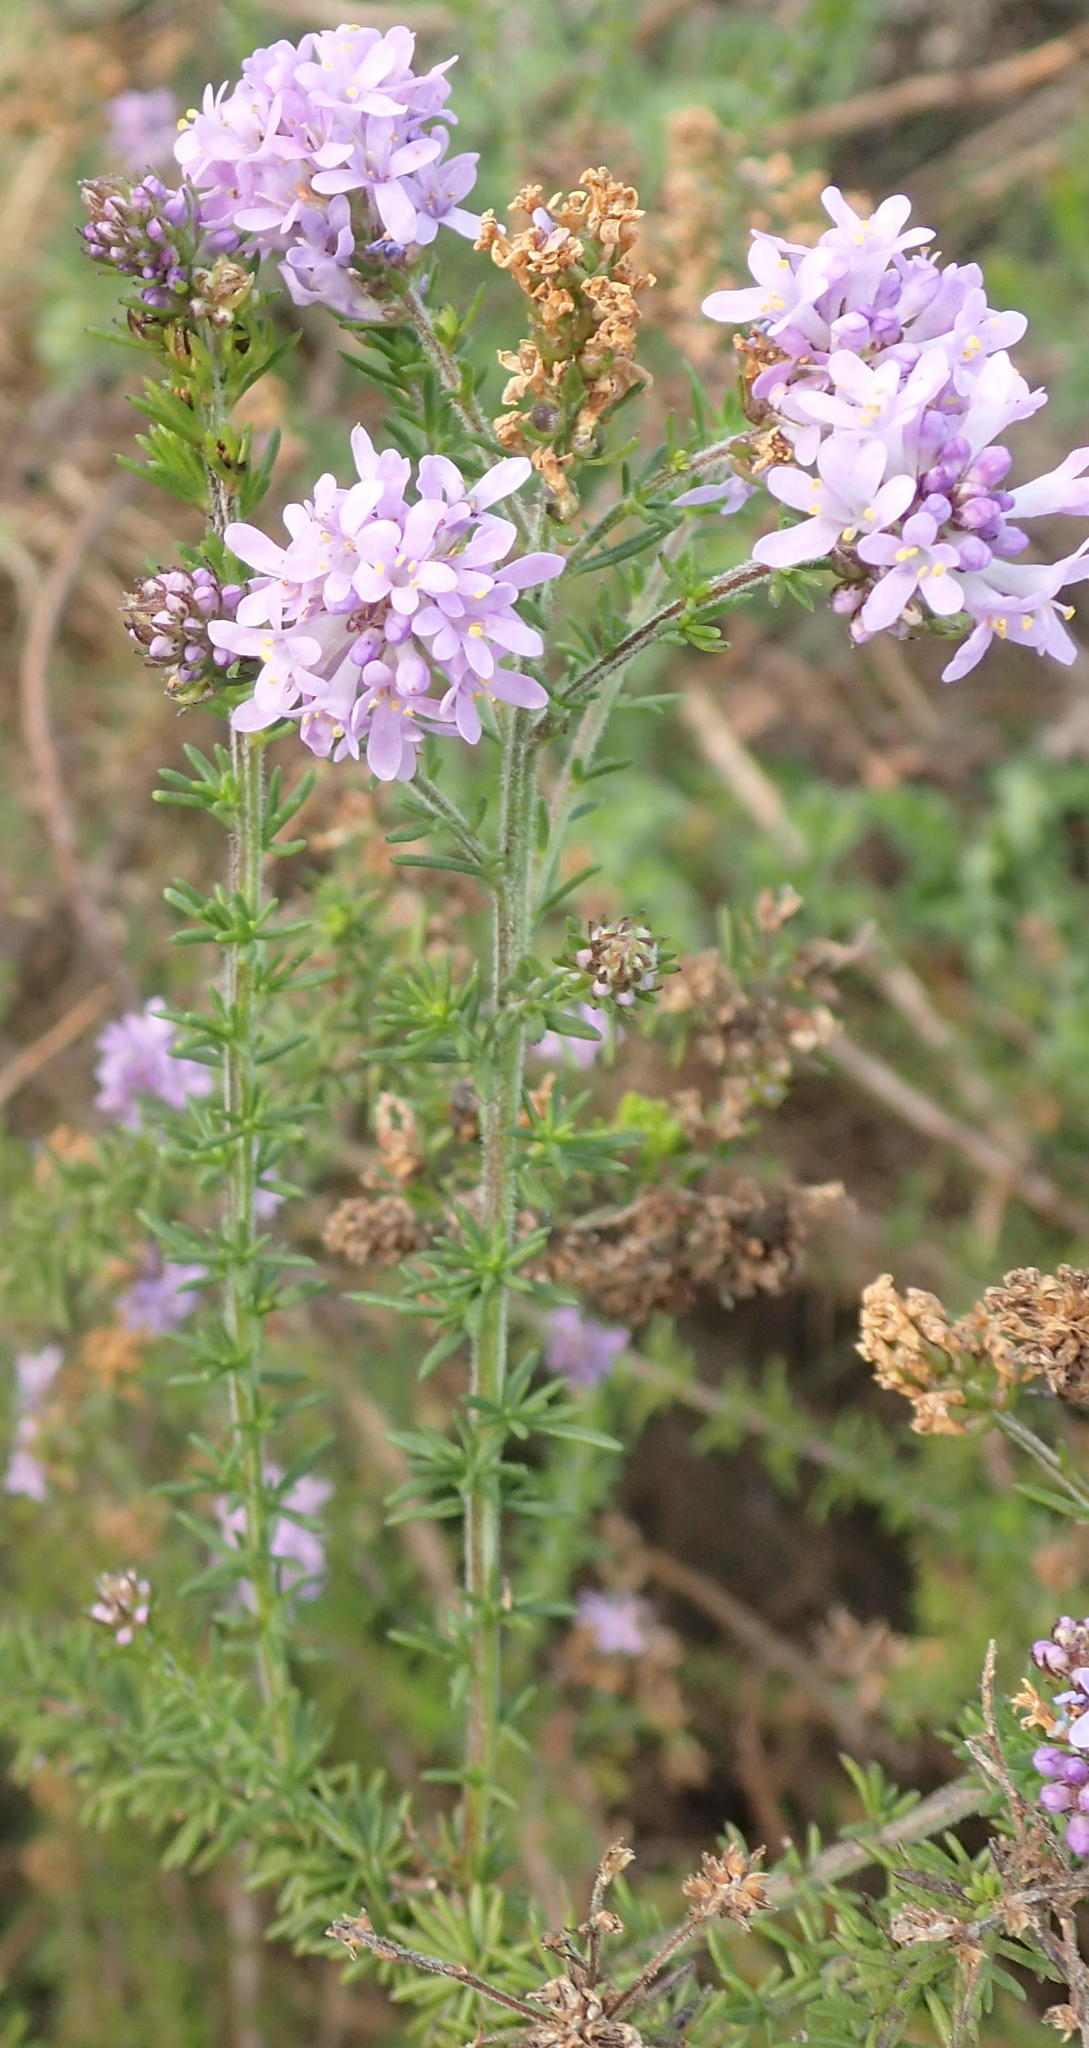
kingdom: Plantae
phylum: Tracheophyta
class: Magnoliopsida
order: Lamiales
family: Scrophulariaceae
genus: Selago
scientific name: Selago canescens
